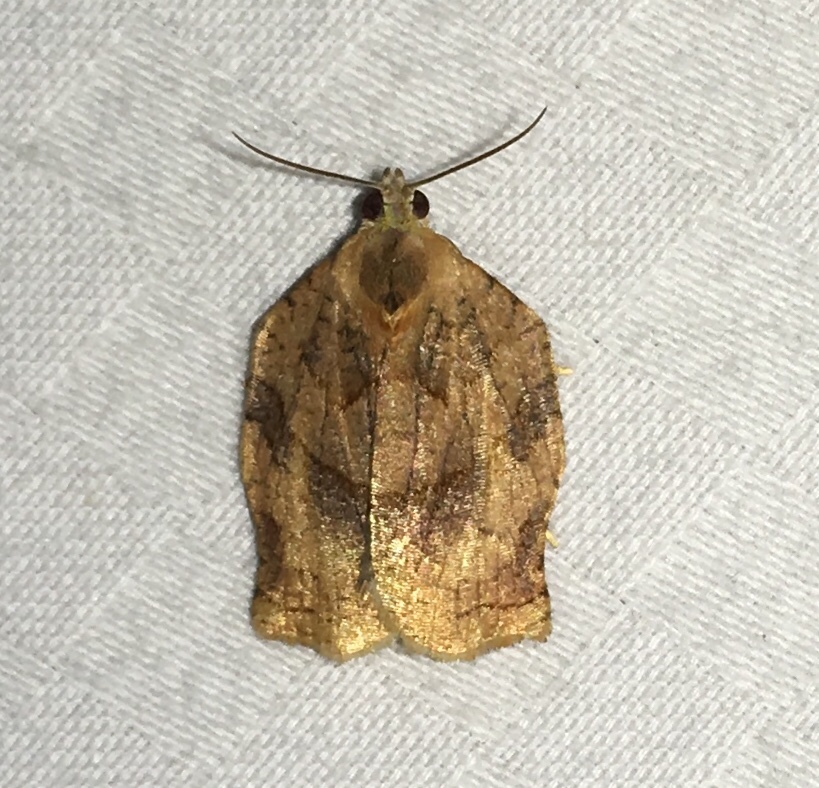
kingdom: Animalia
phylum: Arthropoda
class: Insecta
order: Lepidoptera
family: Tortricidae
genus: Archips
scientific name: Archips purpurana
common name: Omnivorous leafroller
